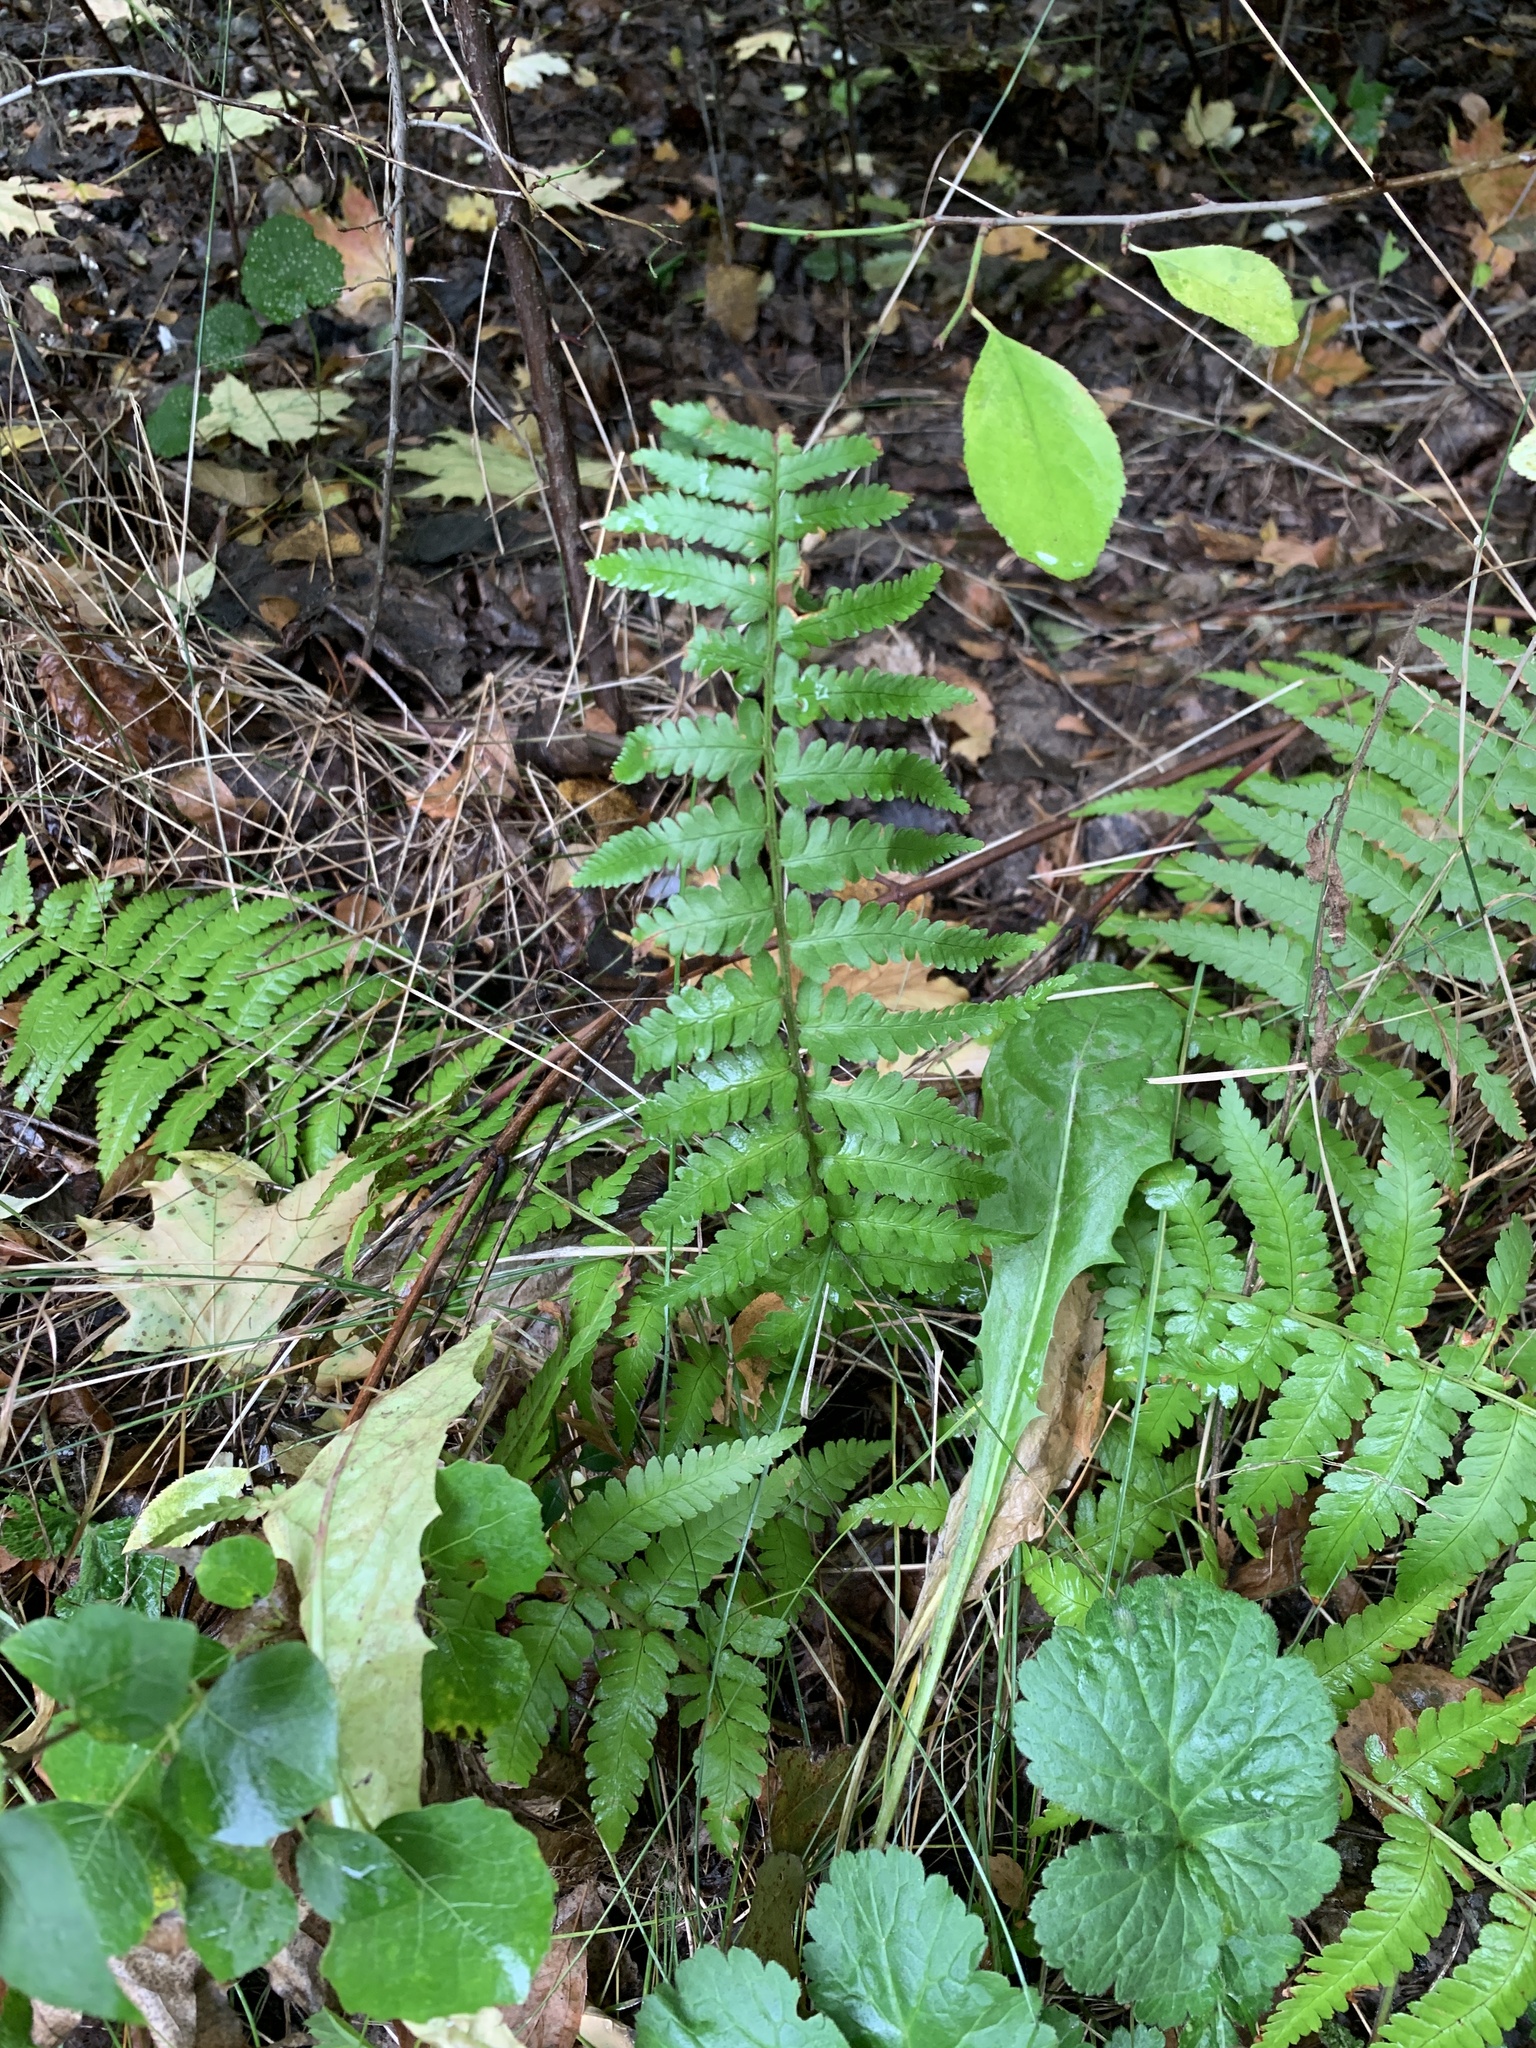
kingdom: Plantae
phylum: Tracheophyta
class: Polypodiopsida
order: Polypodiales
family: Dryopteridaceae
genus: Dryopteris
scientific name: Dryopteris filix-mas
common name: Male fern
